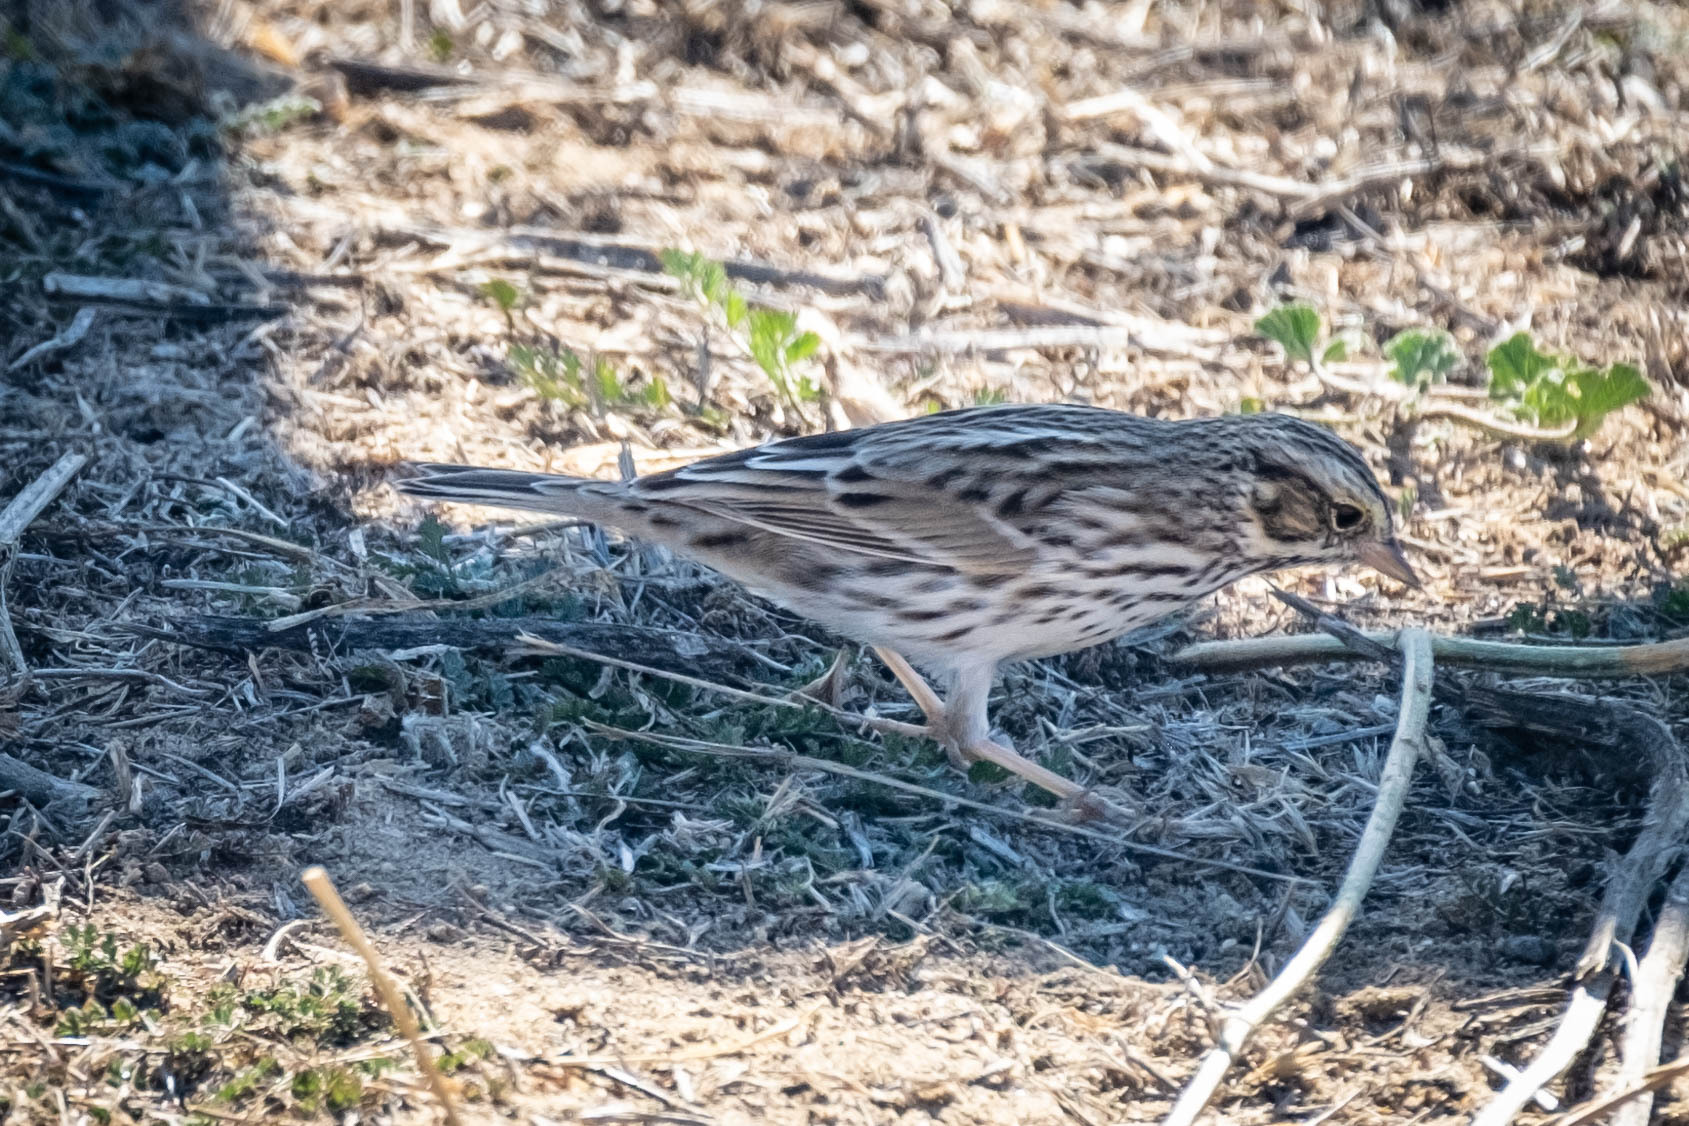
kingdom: Animalia
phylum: Chordata
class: Aves
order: Passeriformes
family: Passerellidae
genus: Passerculus
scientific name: Passerculus sandwichensis
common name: Savannah sparrow
